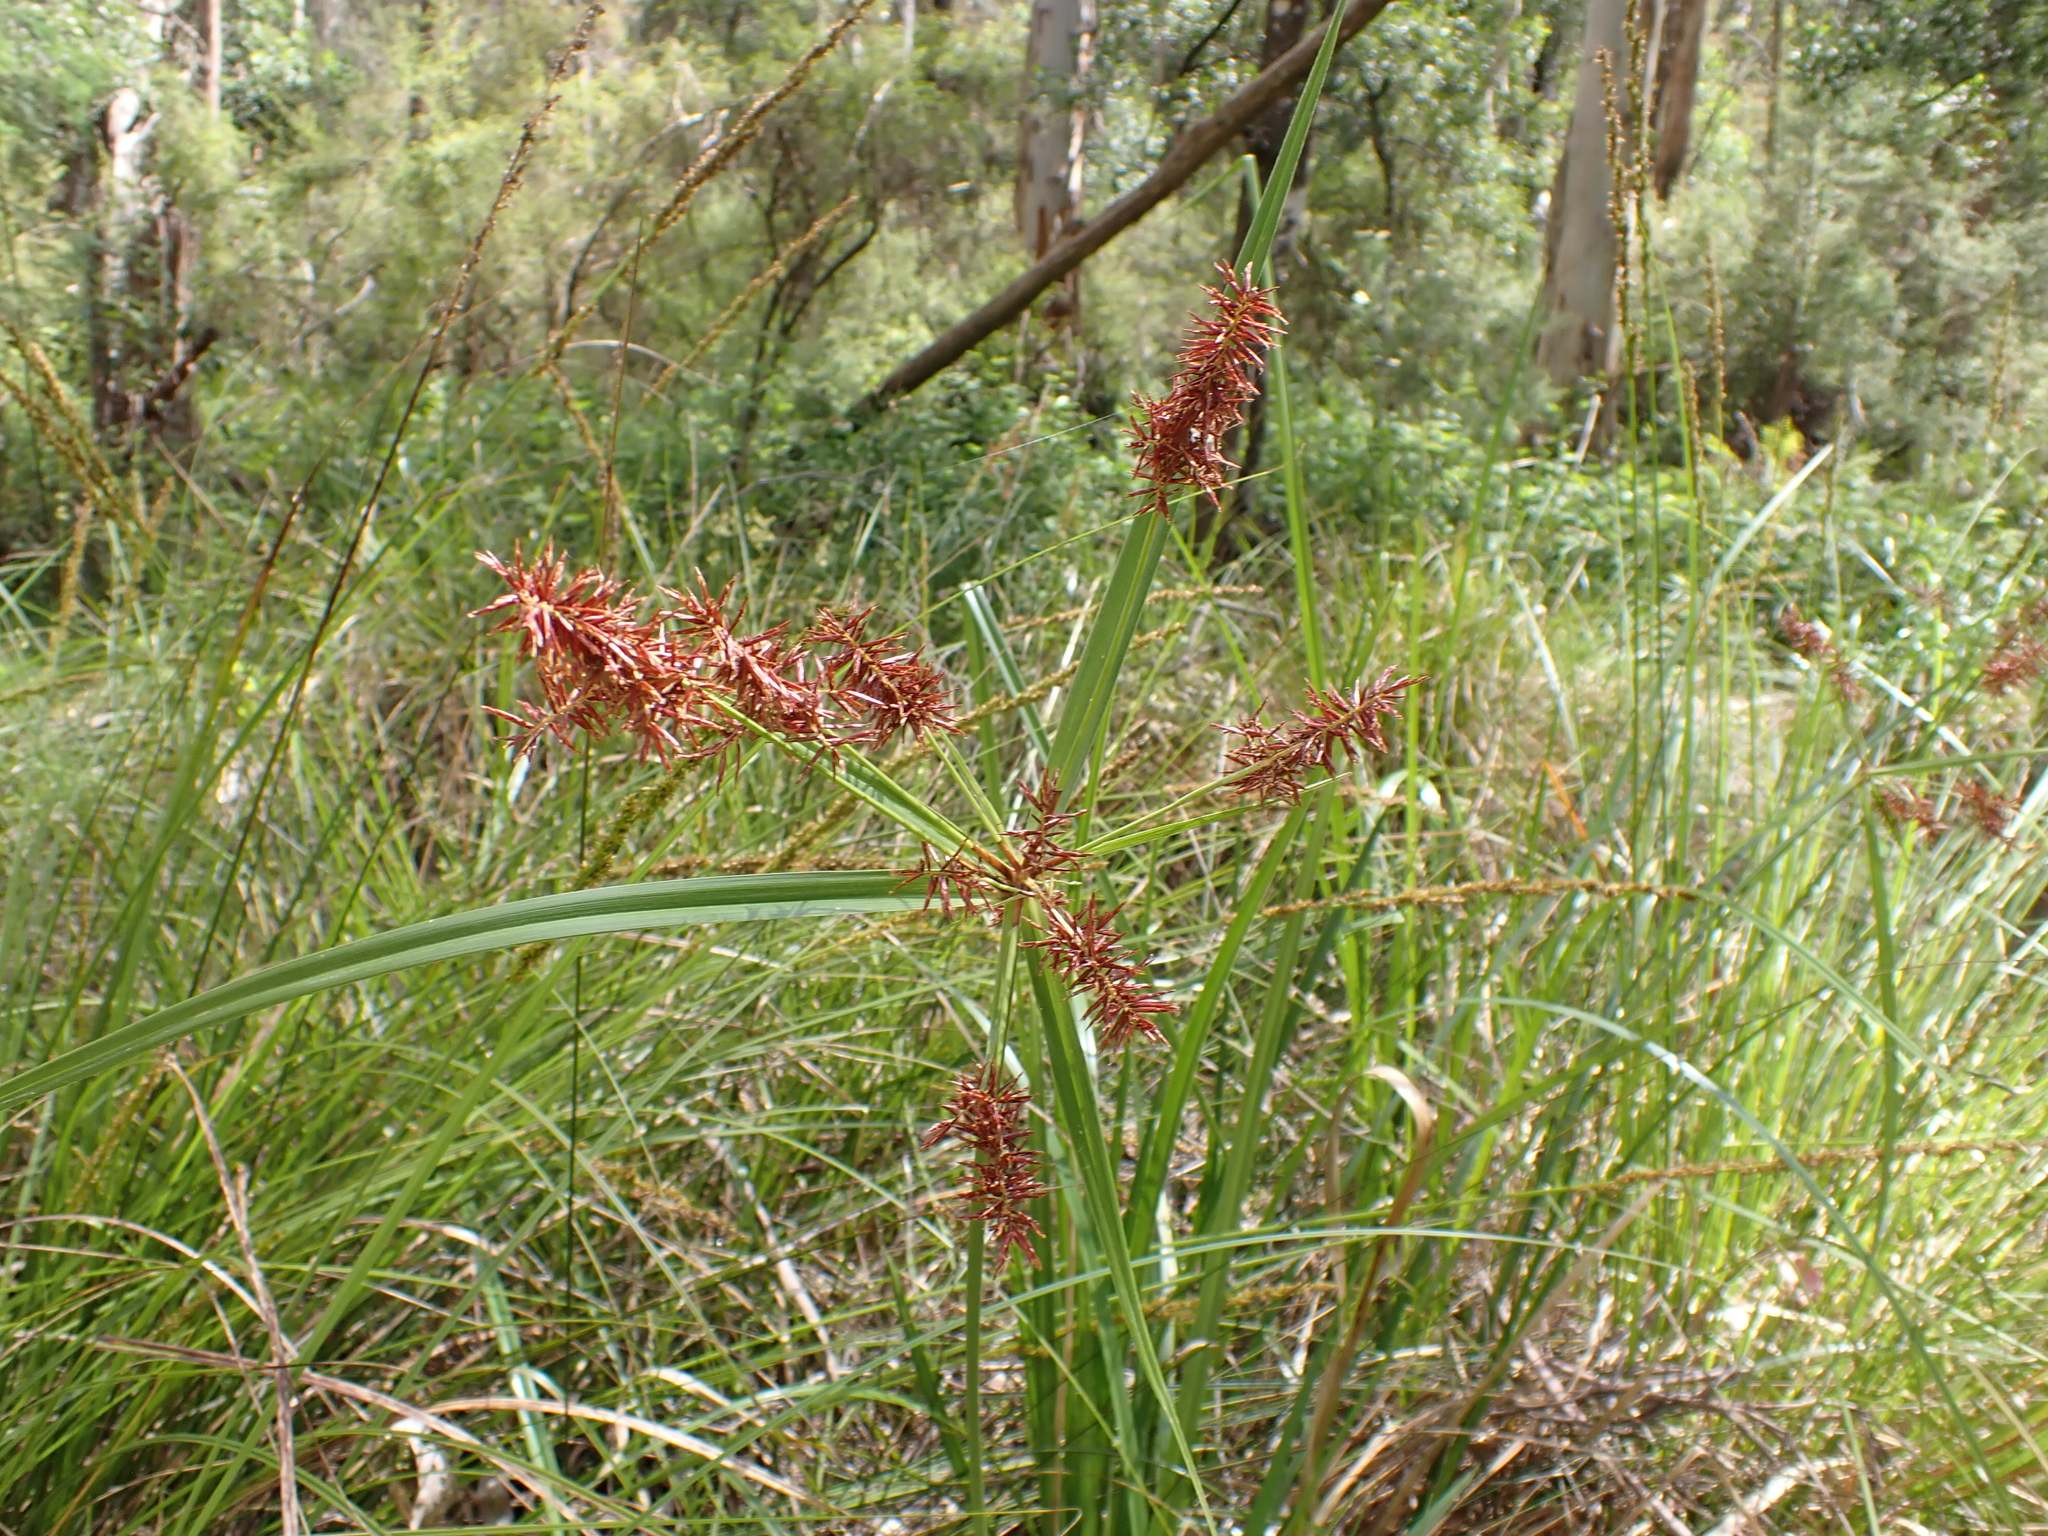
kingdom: Plantae
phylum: Tracheophyta
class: Liliopsida
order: Poales
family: Cyperaceae
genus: Cyperus
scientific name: Cyperus lucidus
